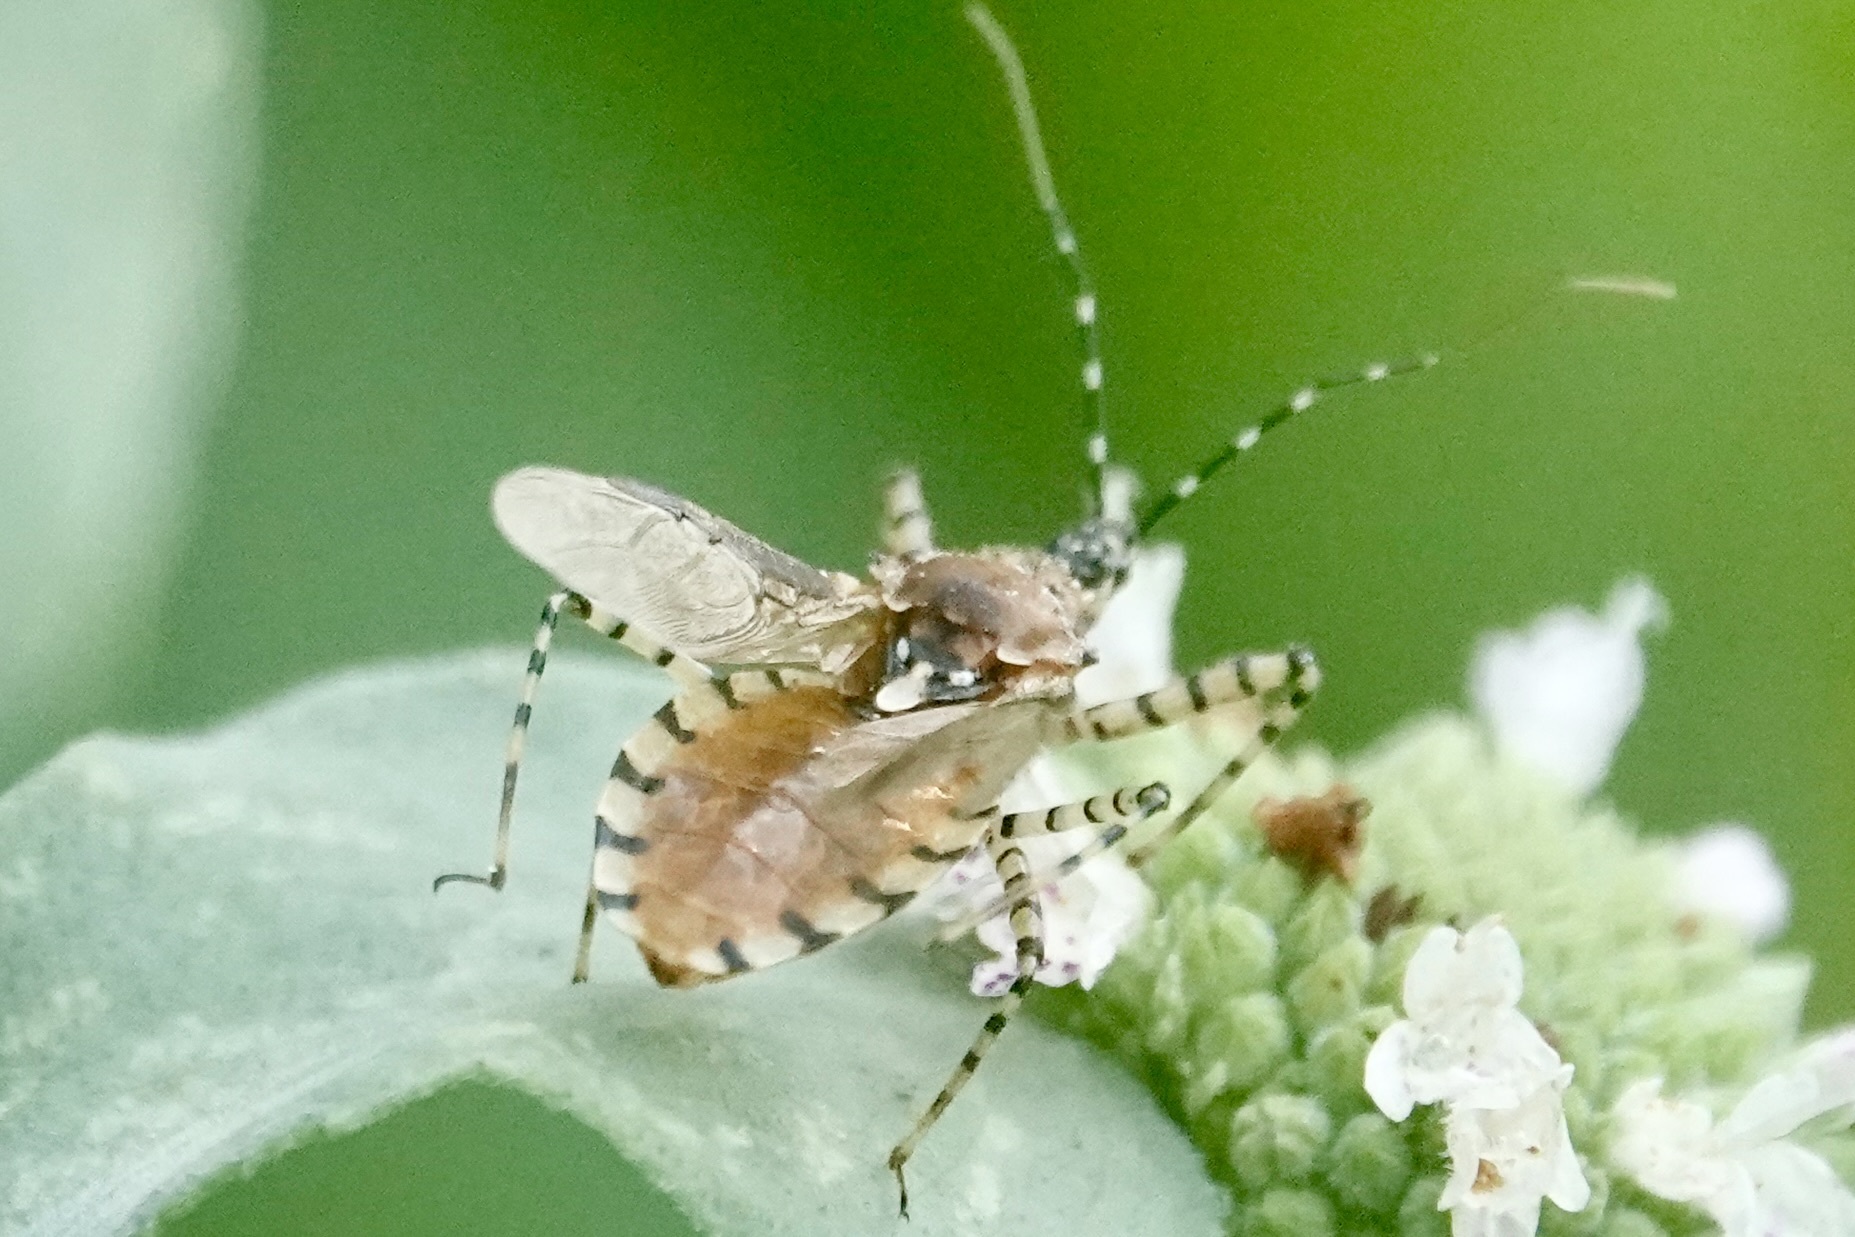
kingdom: Animalia
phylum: Arthropoda
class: Insecta
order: Hemiptera
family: Reduviidae
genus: Pselliopus
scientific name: Pselliopus cinctus
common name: Ringed assassin bug
